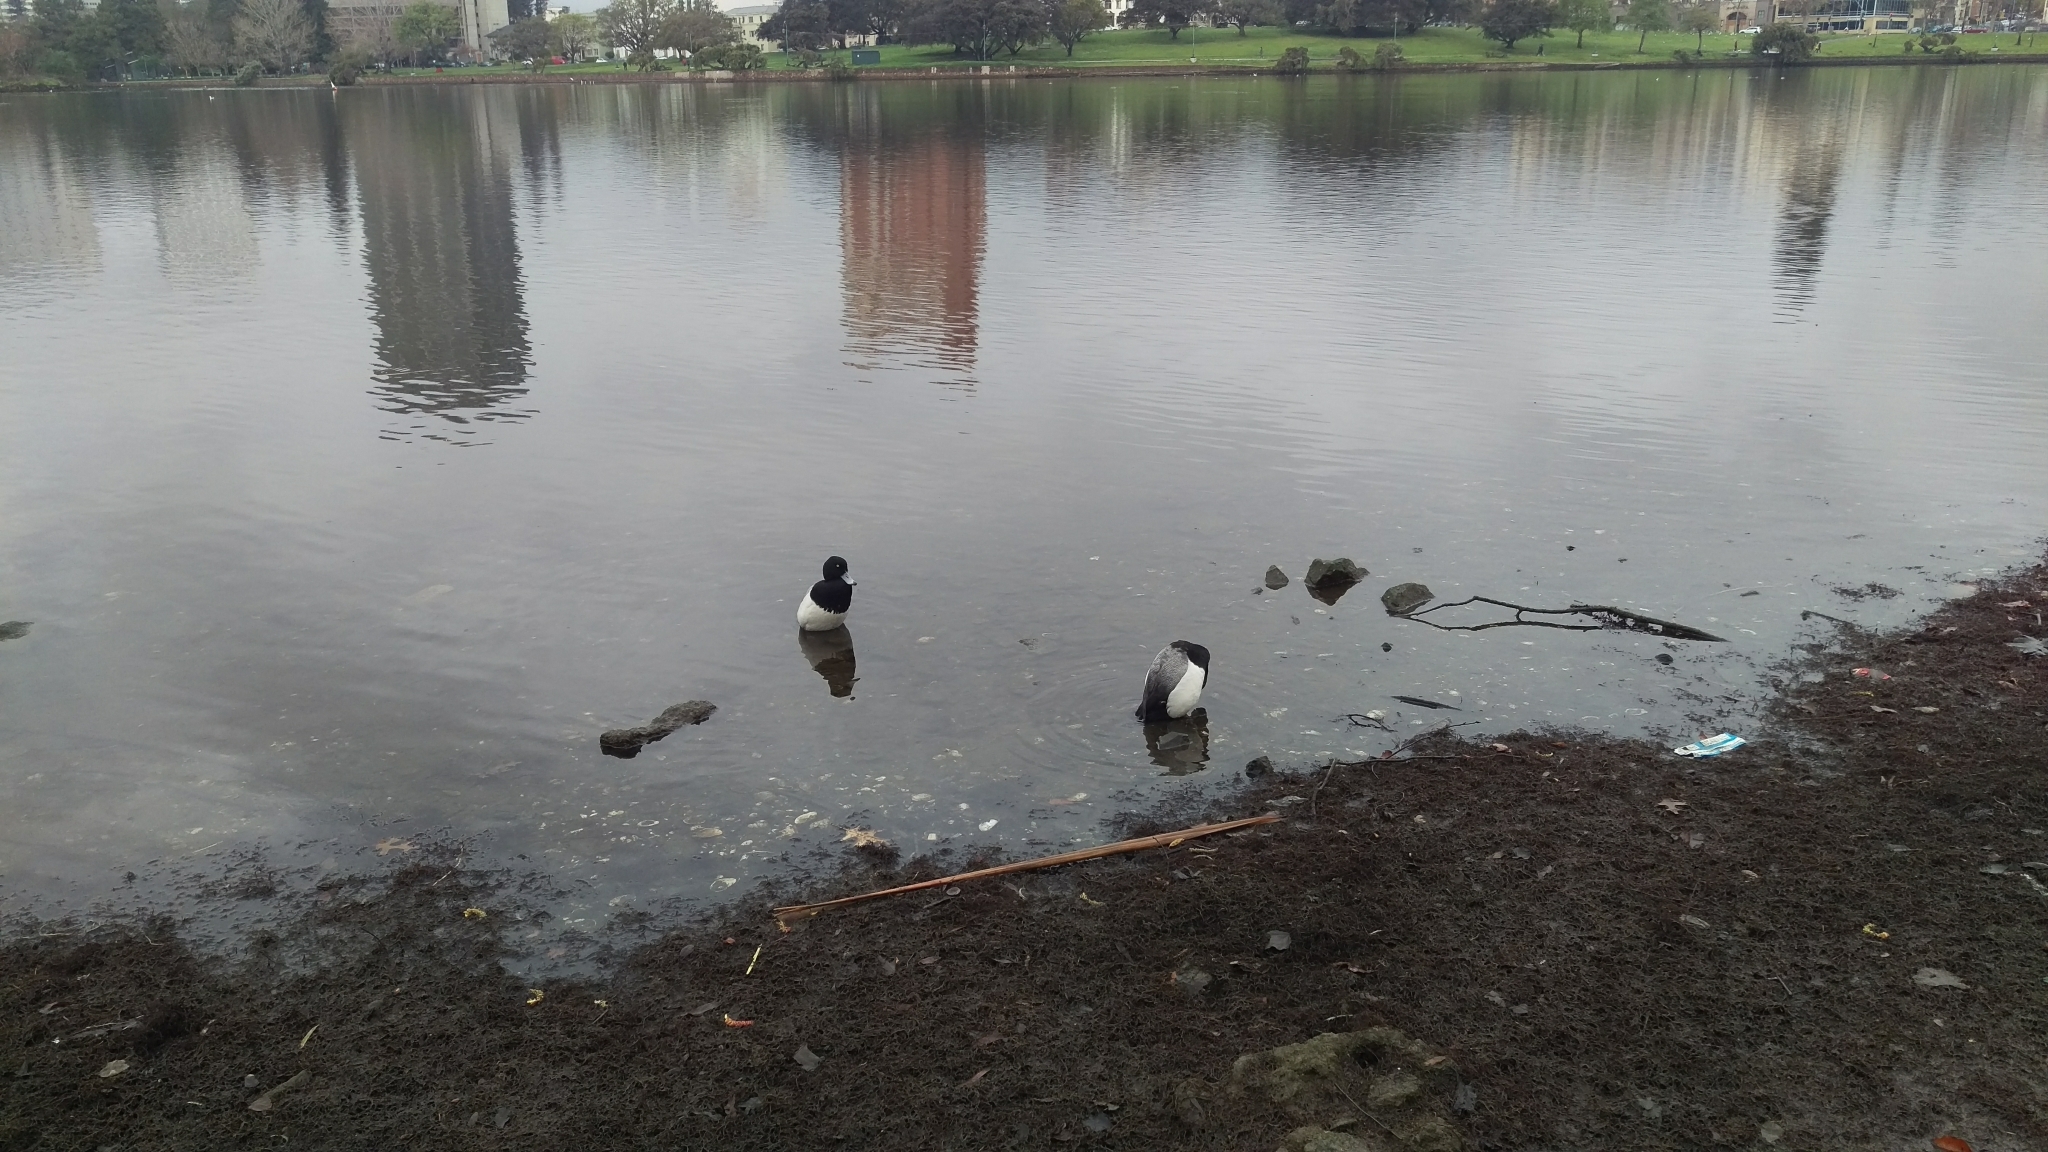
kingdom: Animalia
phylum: Chordata
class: Aves
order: Anseriformes
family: Anatidae
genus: Aythya
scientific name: Aythya affinis
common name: Lesser scaup
